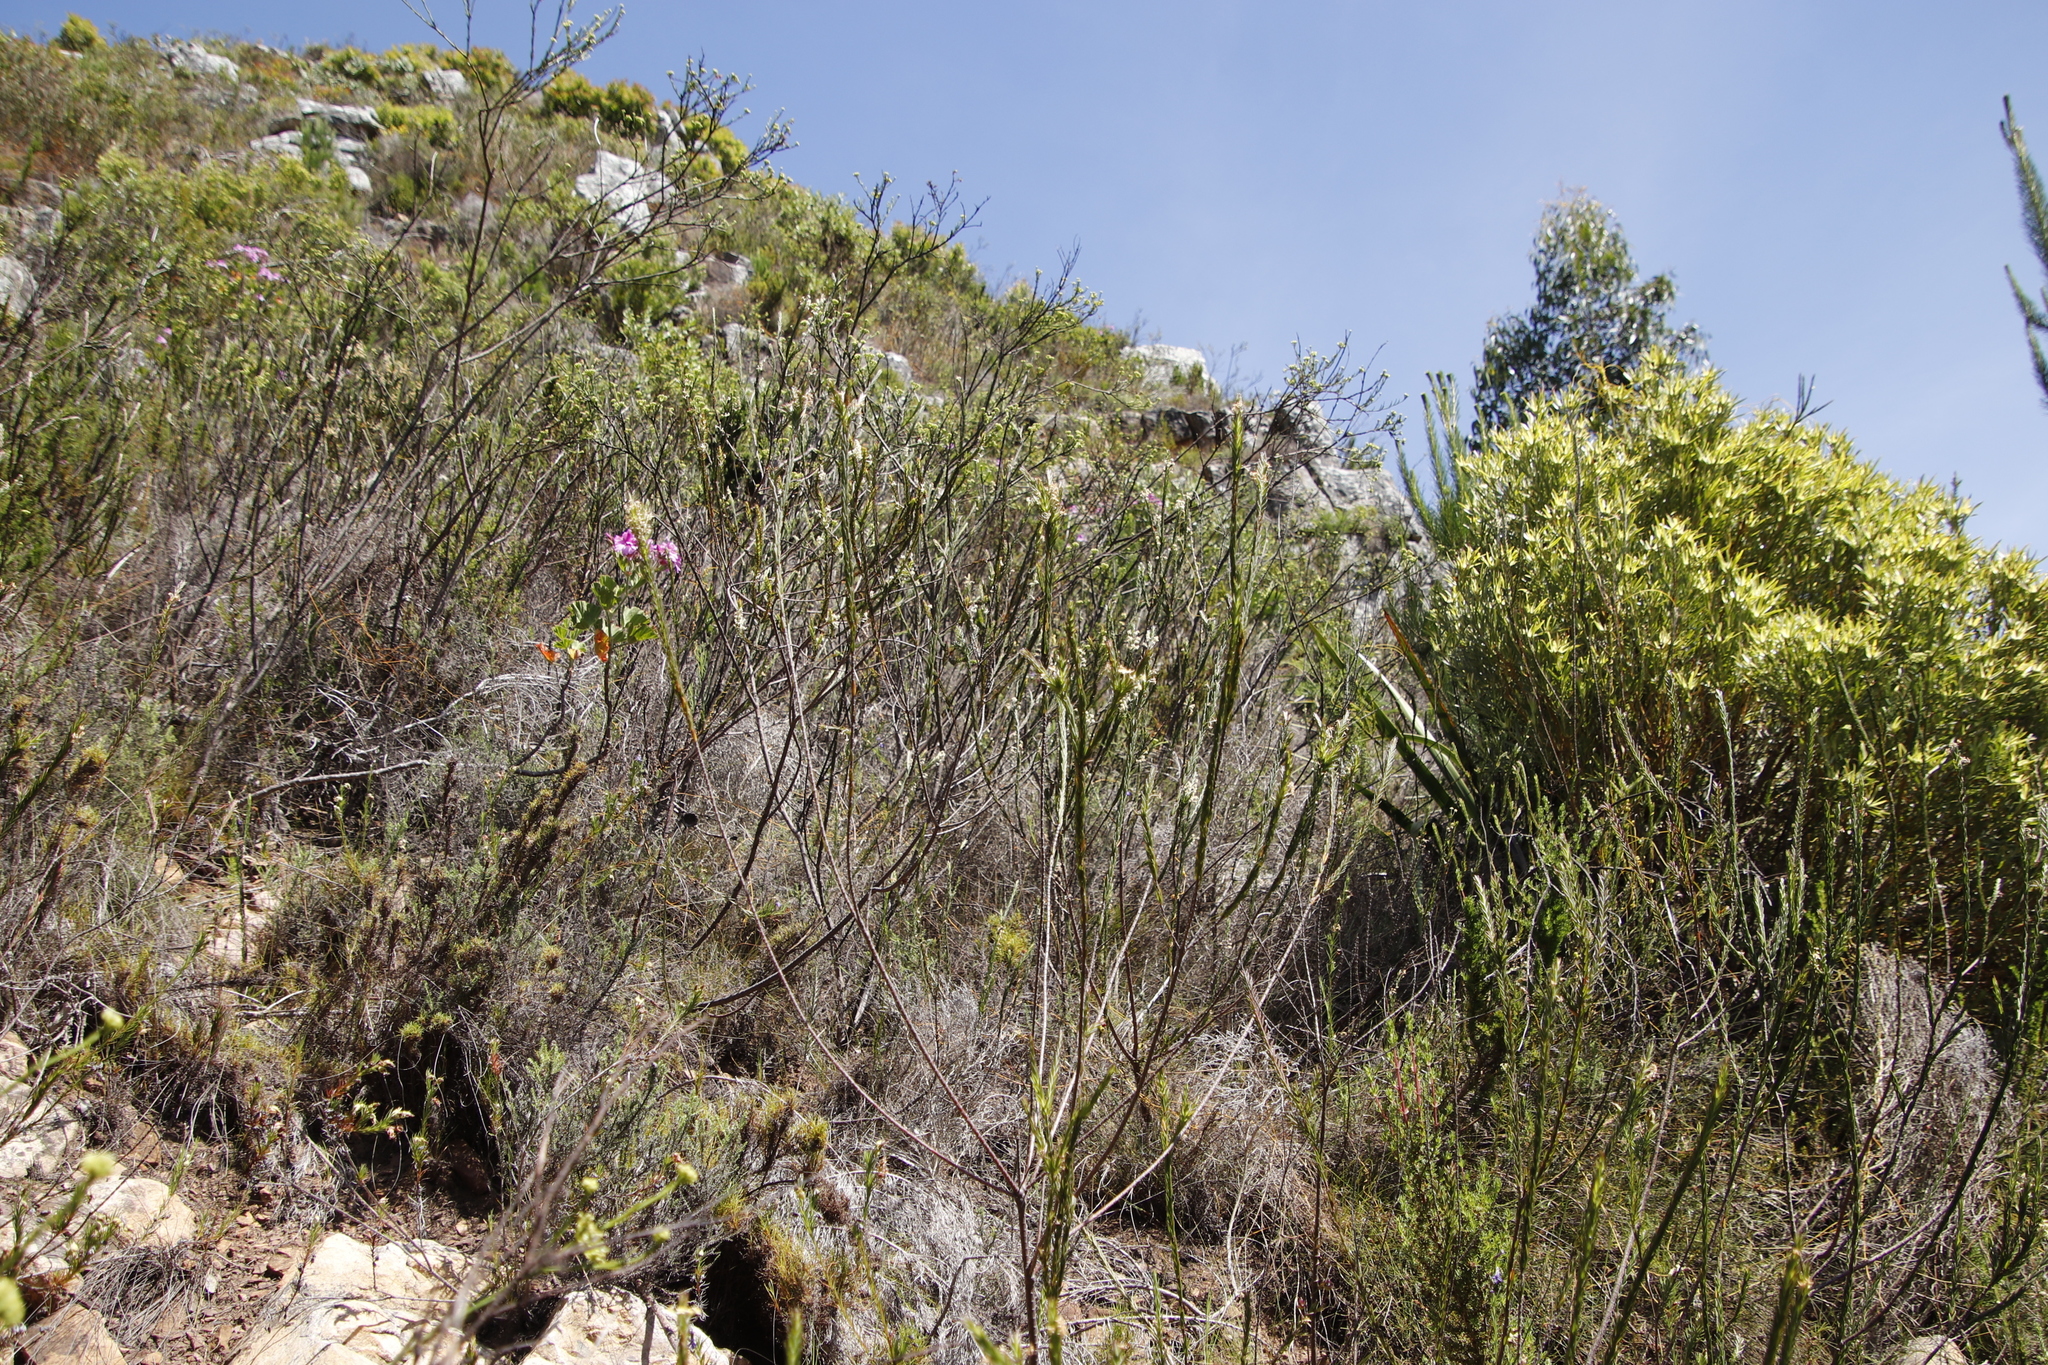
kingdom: Plantae
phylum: Tracheophyta
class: Magnoliopsida
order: Santalales
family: Thesiaceae
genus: Thesium
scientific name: Thesium strictum
